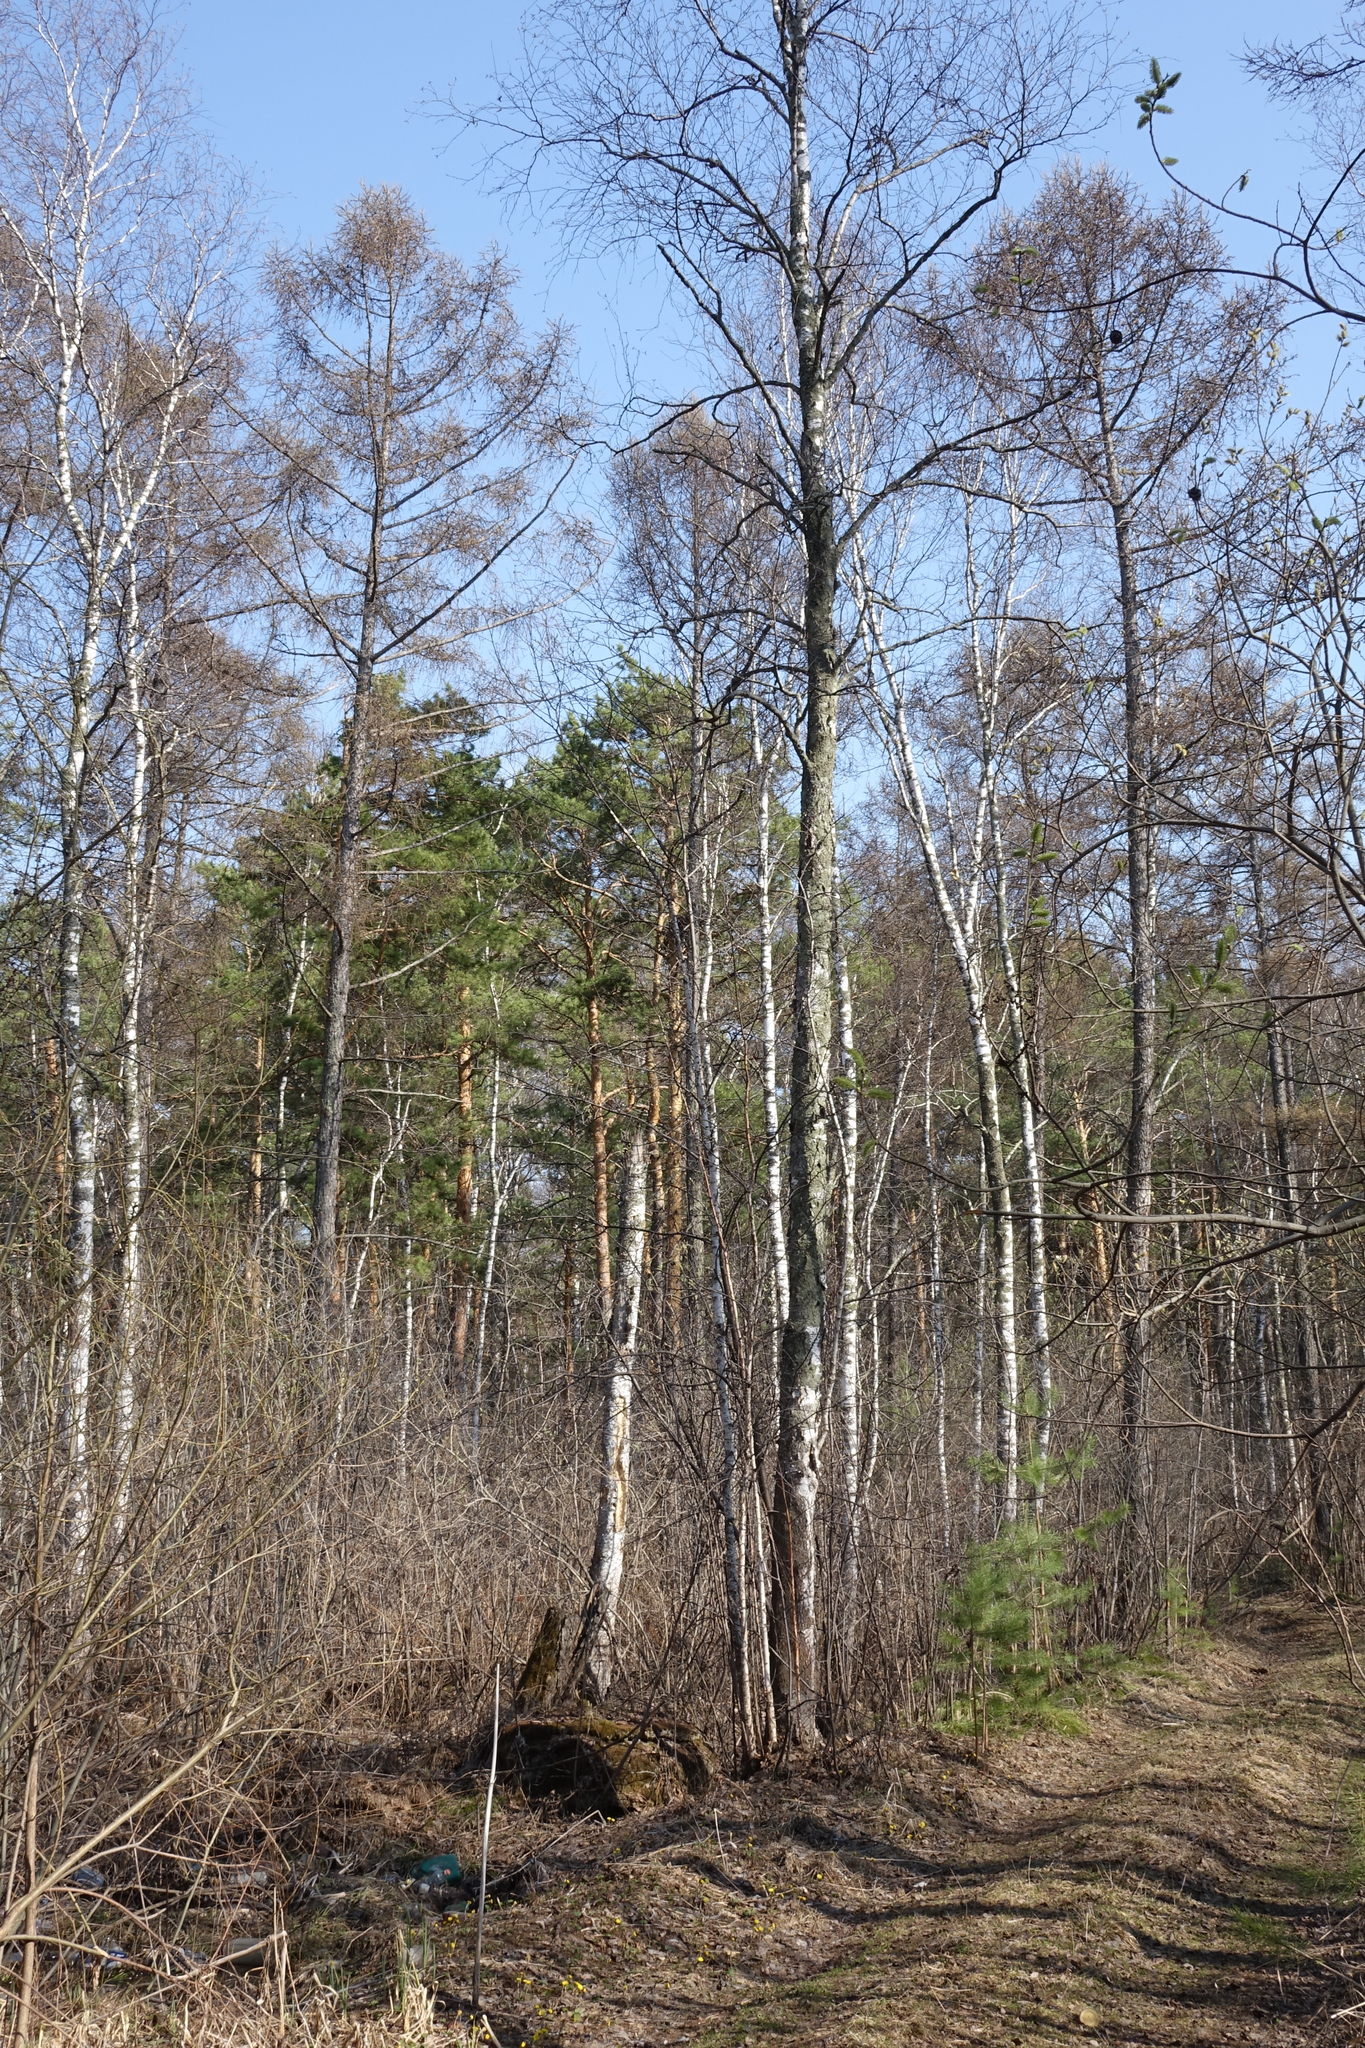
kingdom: Plantae
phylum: Tracheophyta
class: Pinopsida
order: Pinales
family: Pinaceae
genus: Pinus
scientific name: Pinus sylvestris
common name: Scots pine
